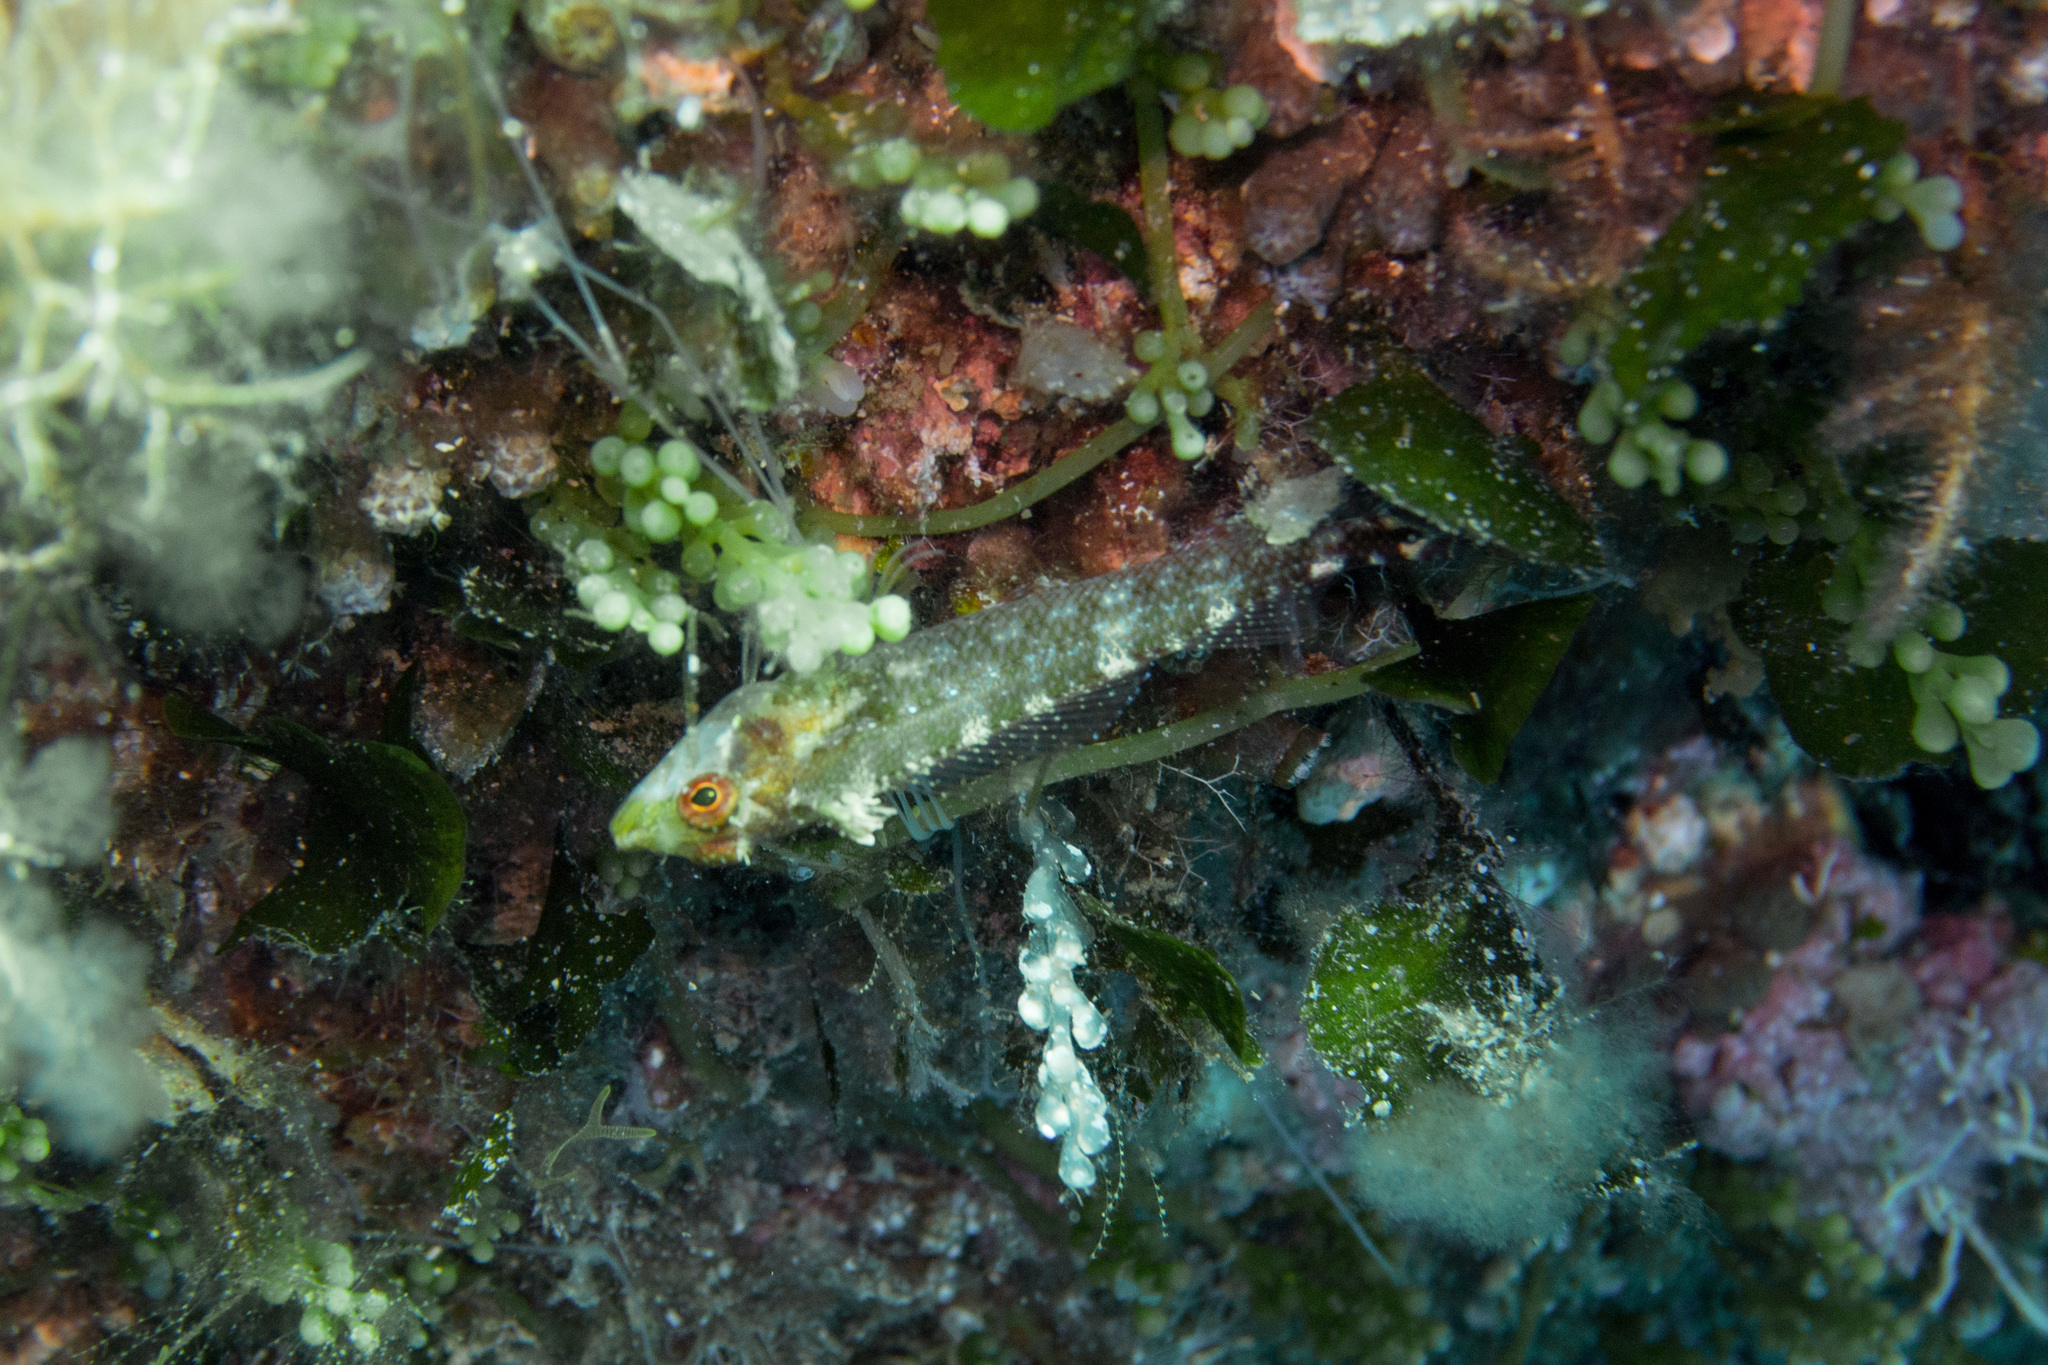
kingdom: Animalia
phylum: Chordata
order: Perciformes
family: Tripterygiidae
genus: Tripterygion
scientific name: Tripterygion delaisi
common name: Black-face blenny
